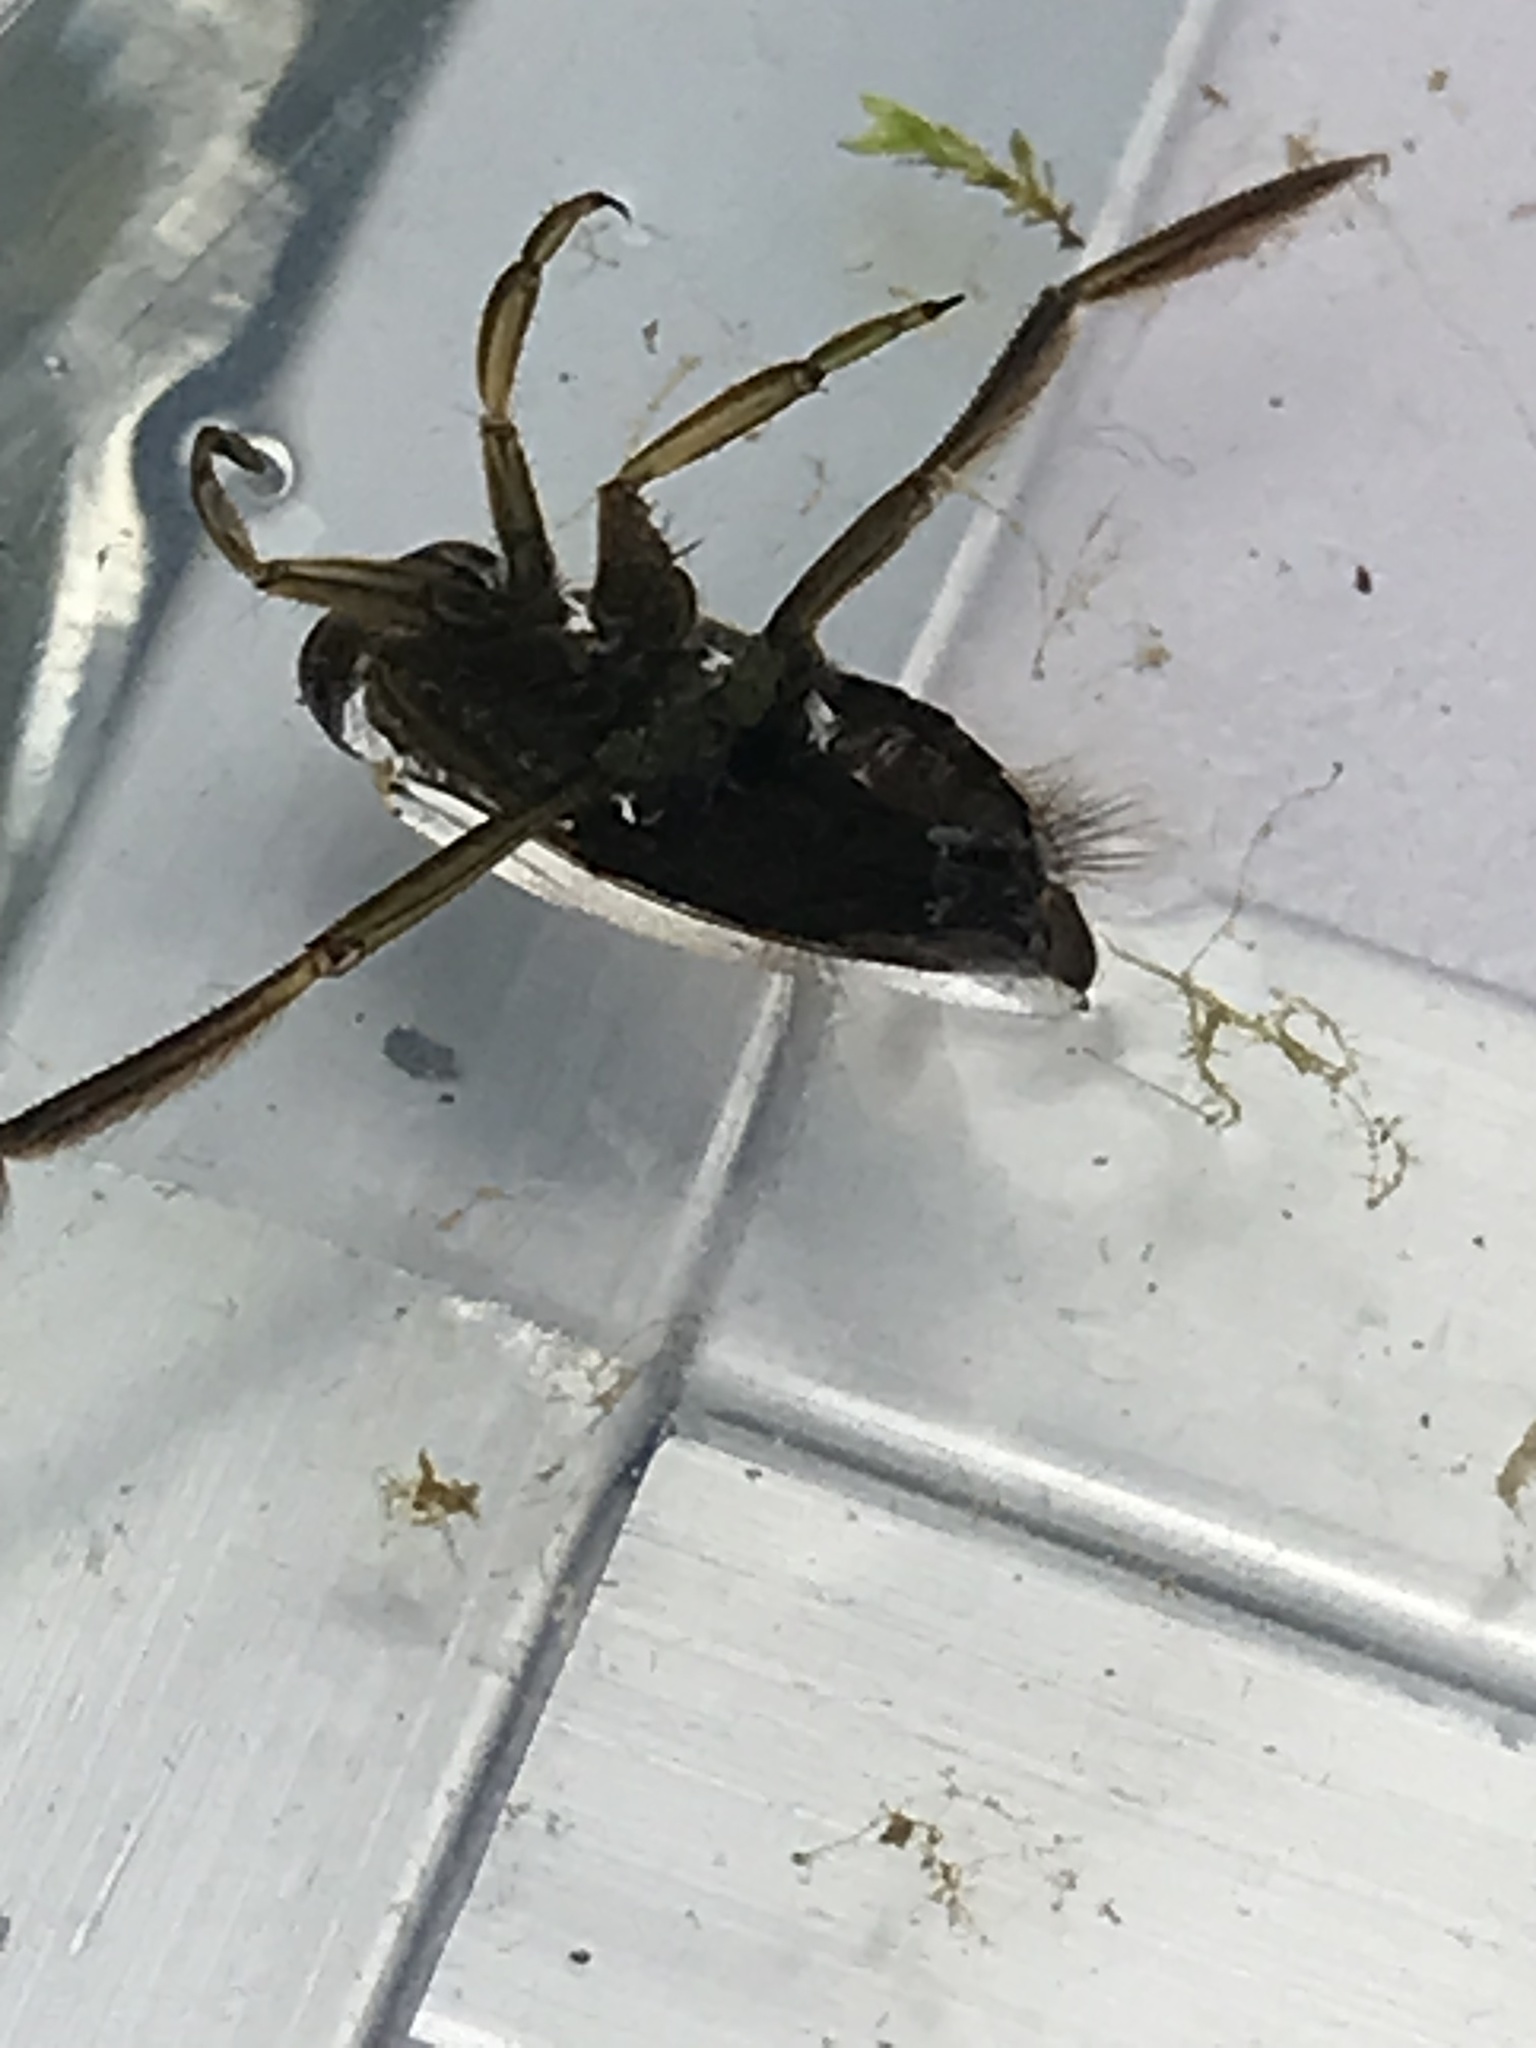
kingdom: Animalia
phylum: Arthropoda
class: Insecta
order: Hemiptera
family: Notonectidae
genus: Notonecta
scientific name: Notonecta
